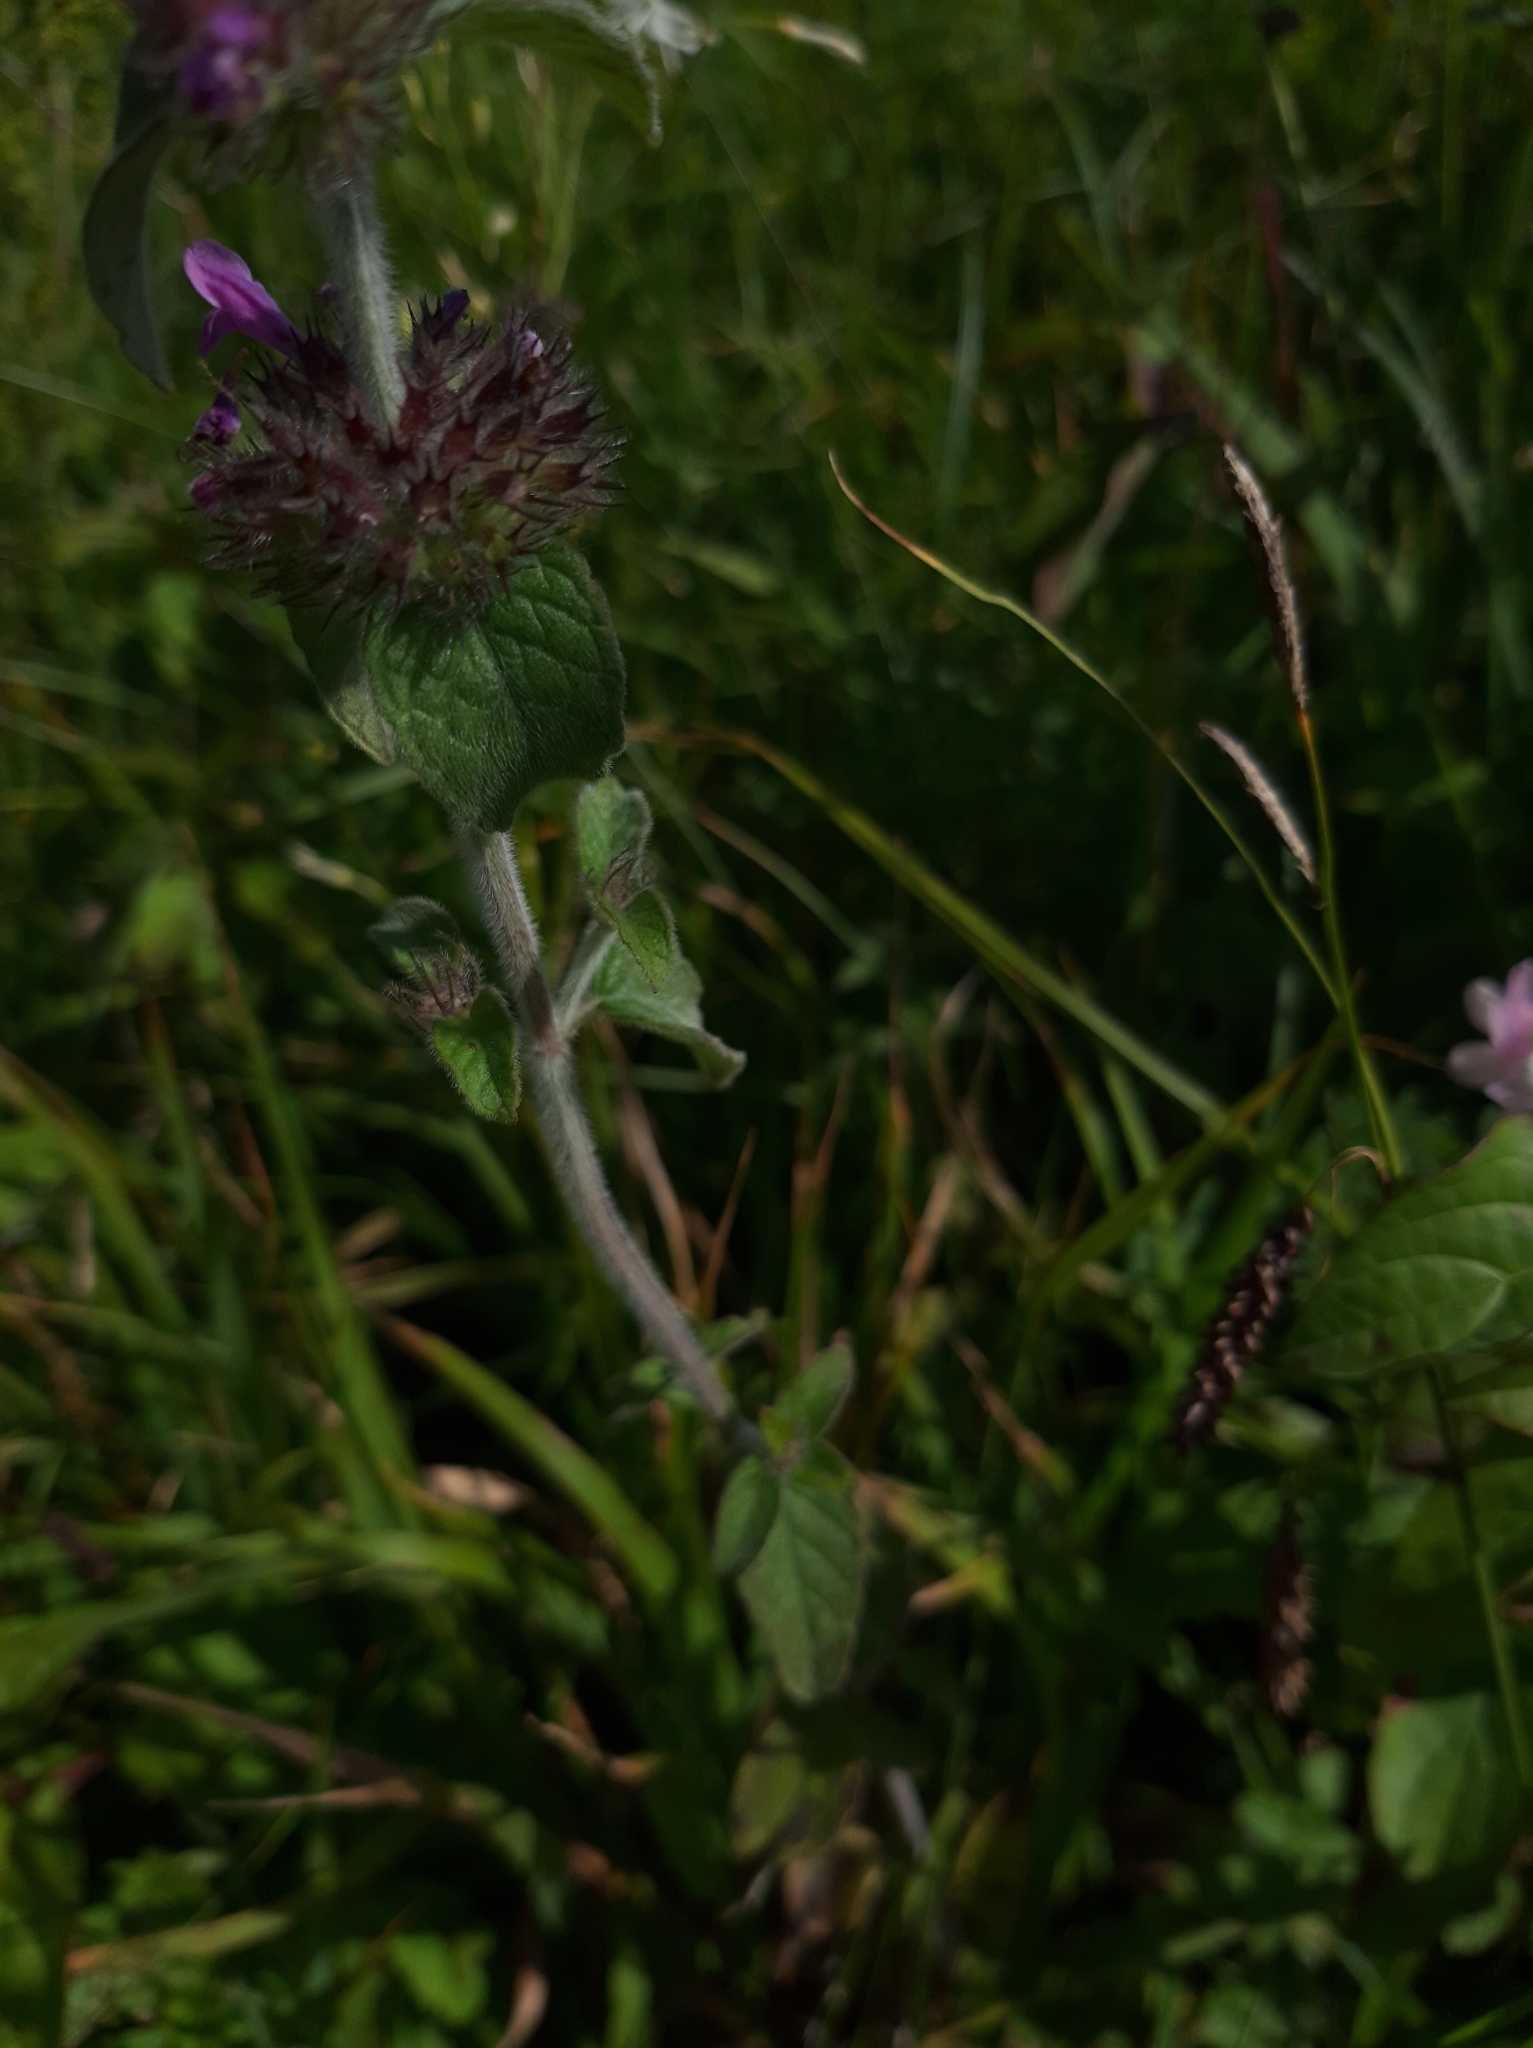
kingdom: Plantae
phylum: Tracheophyta
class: Magnoliopsida
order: Lamiales
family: Lamiaceae
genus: Clinopodium
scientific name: Clinopodium vulgare
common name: Wild basil
